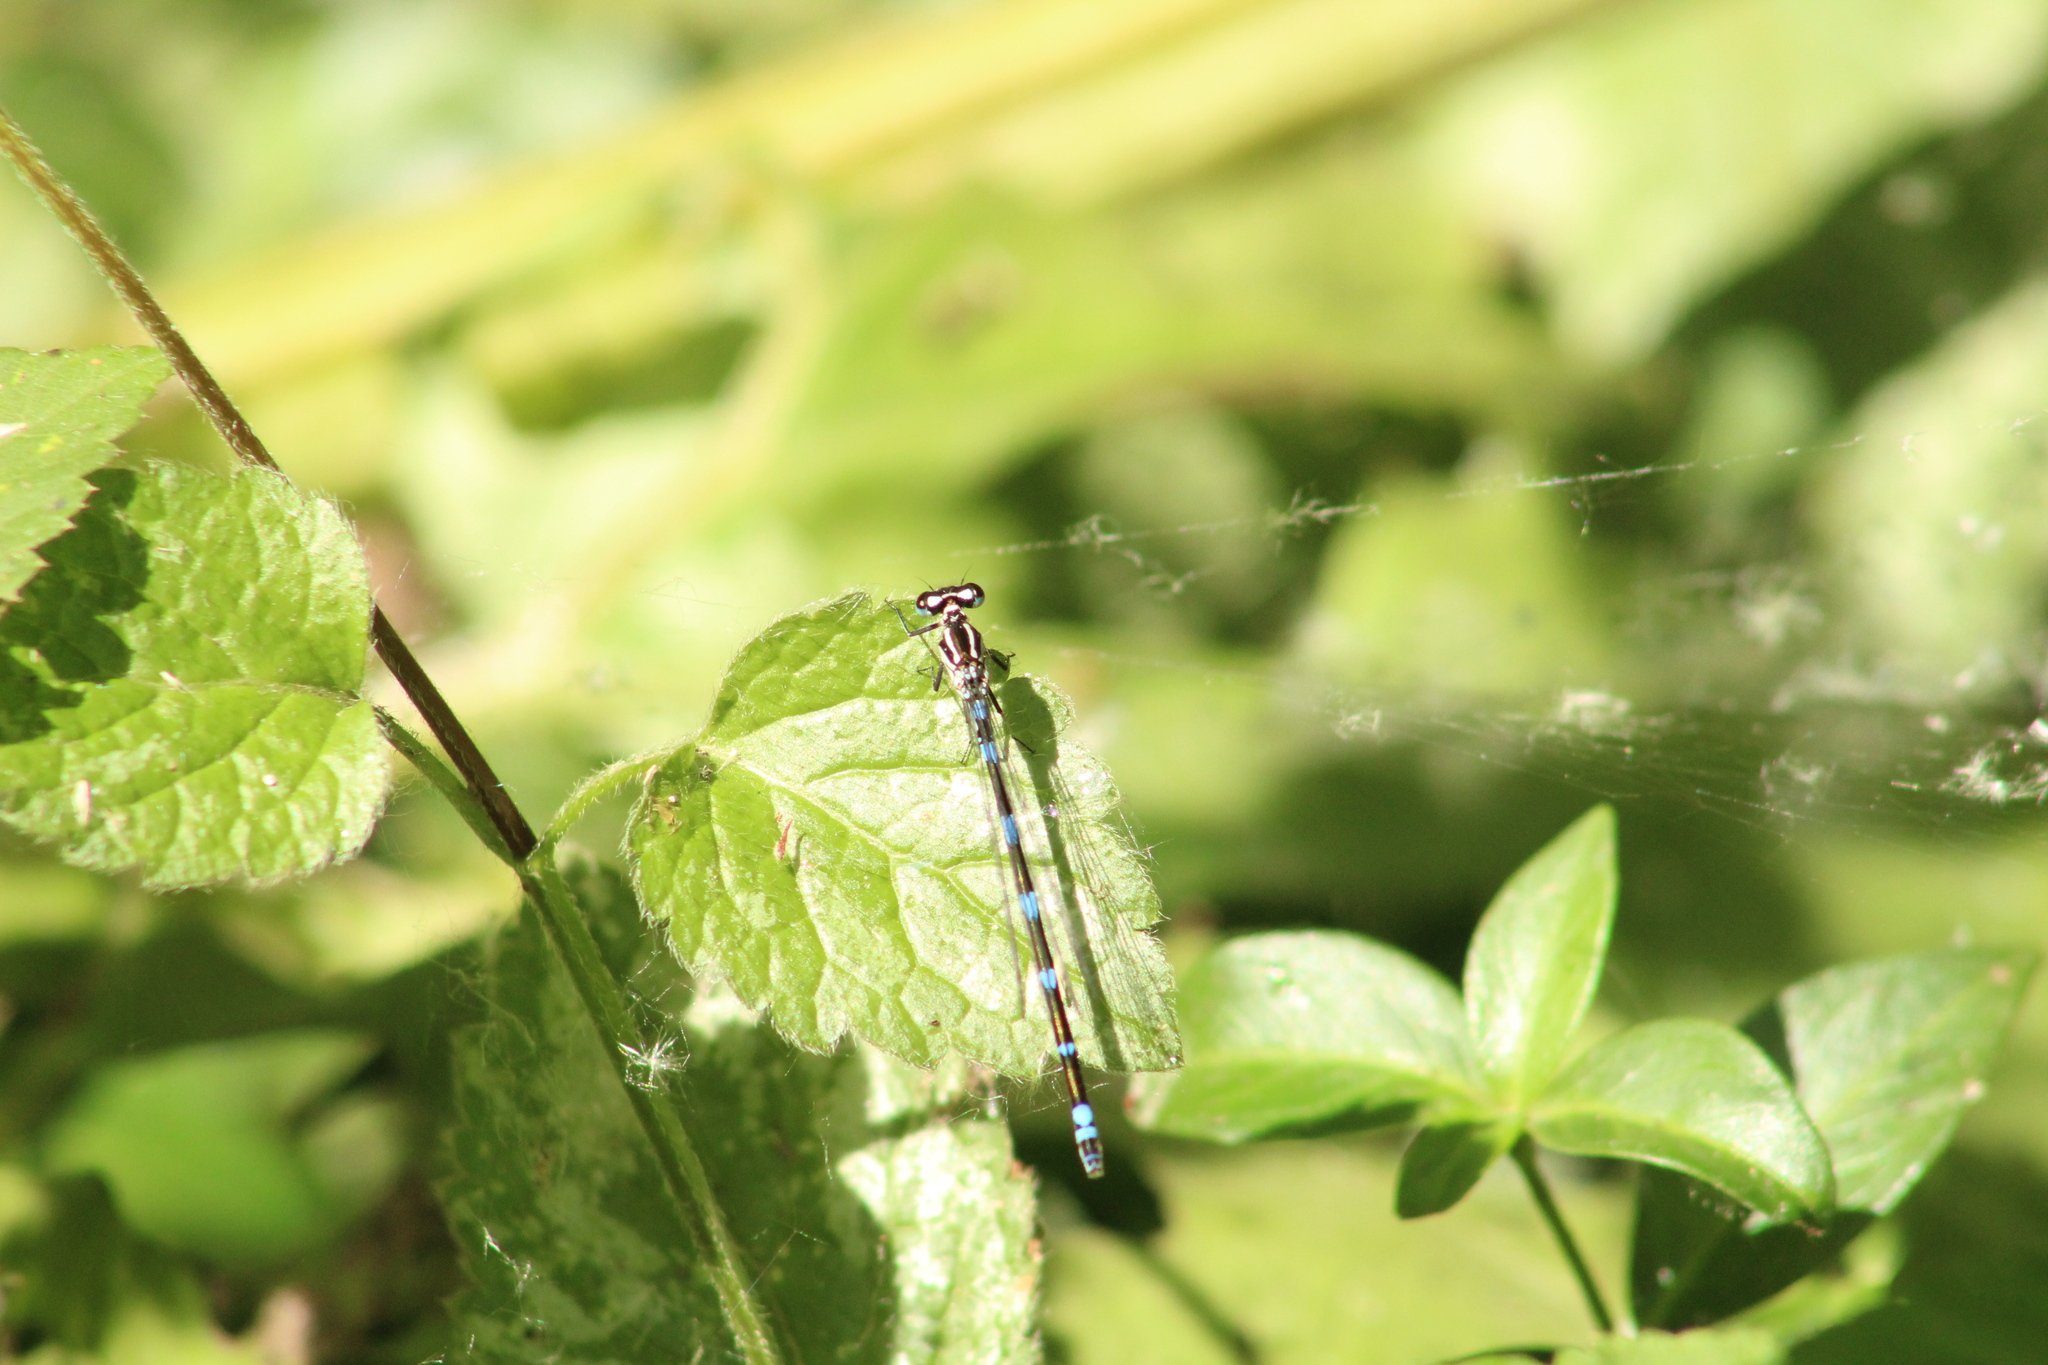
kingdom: Animalia
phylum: Arthropoda
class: Insecta
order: Odonata
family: Coenagrionidae
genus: Coenagrion
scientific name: Coenagrion pulchellum
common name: Variable bluet
